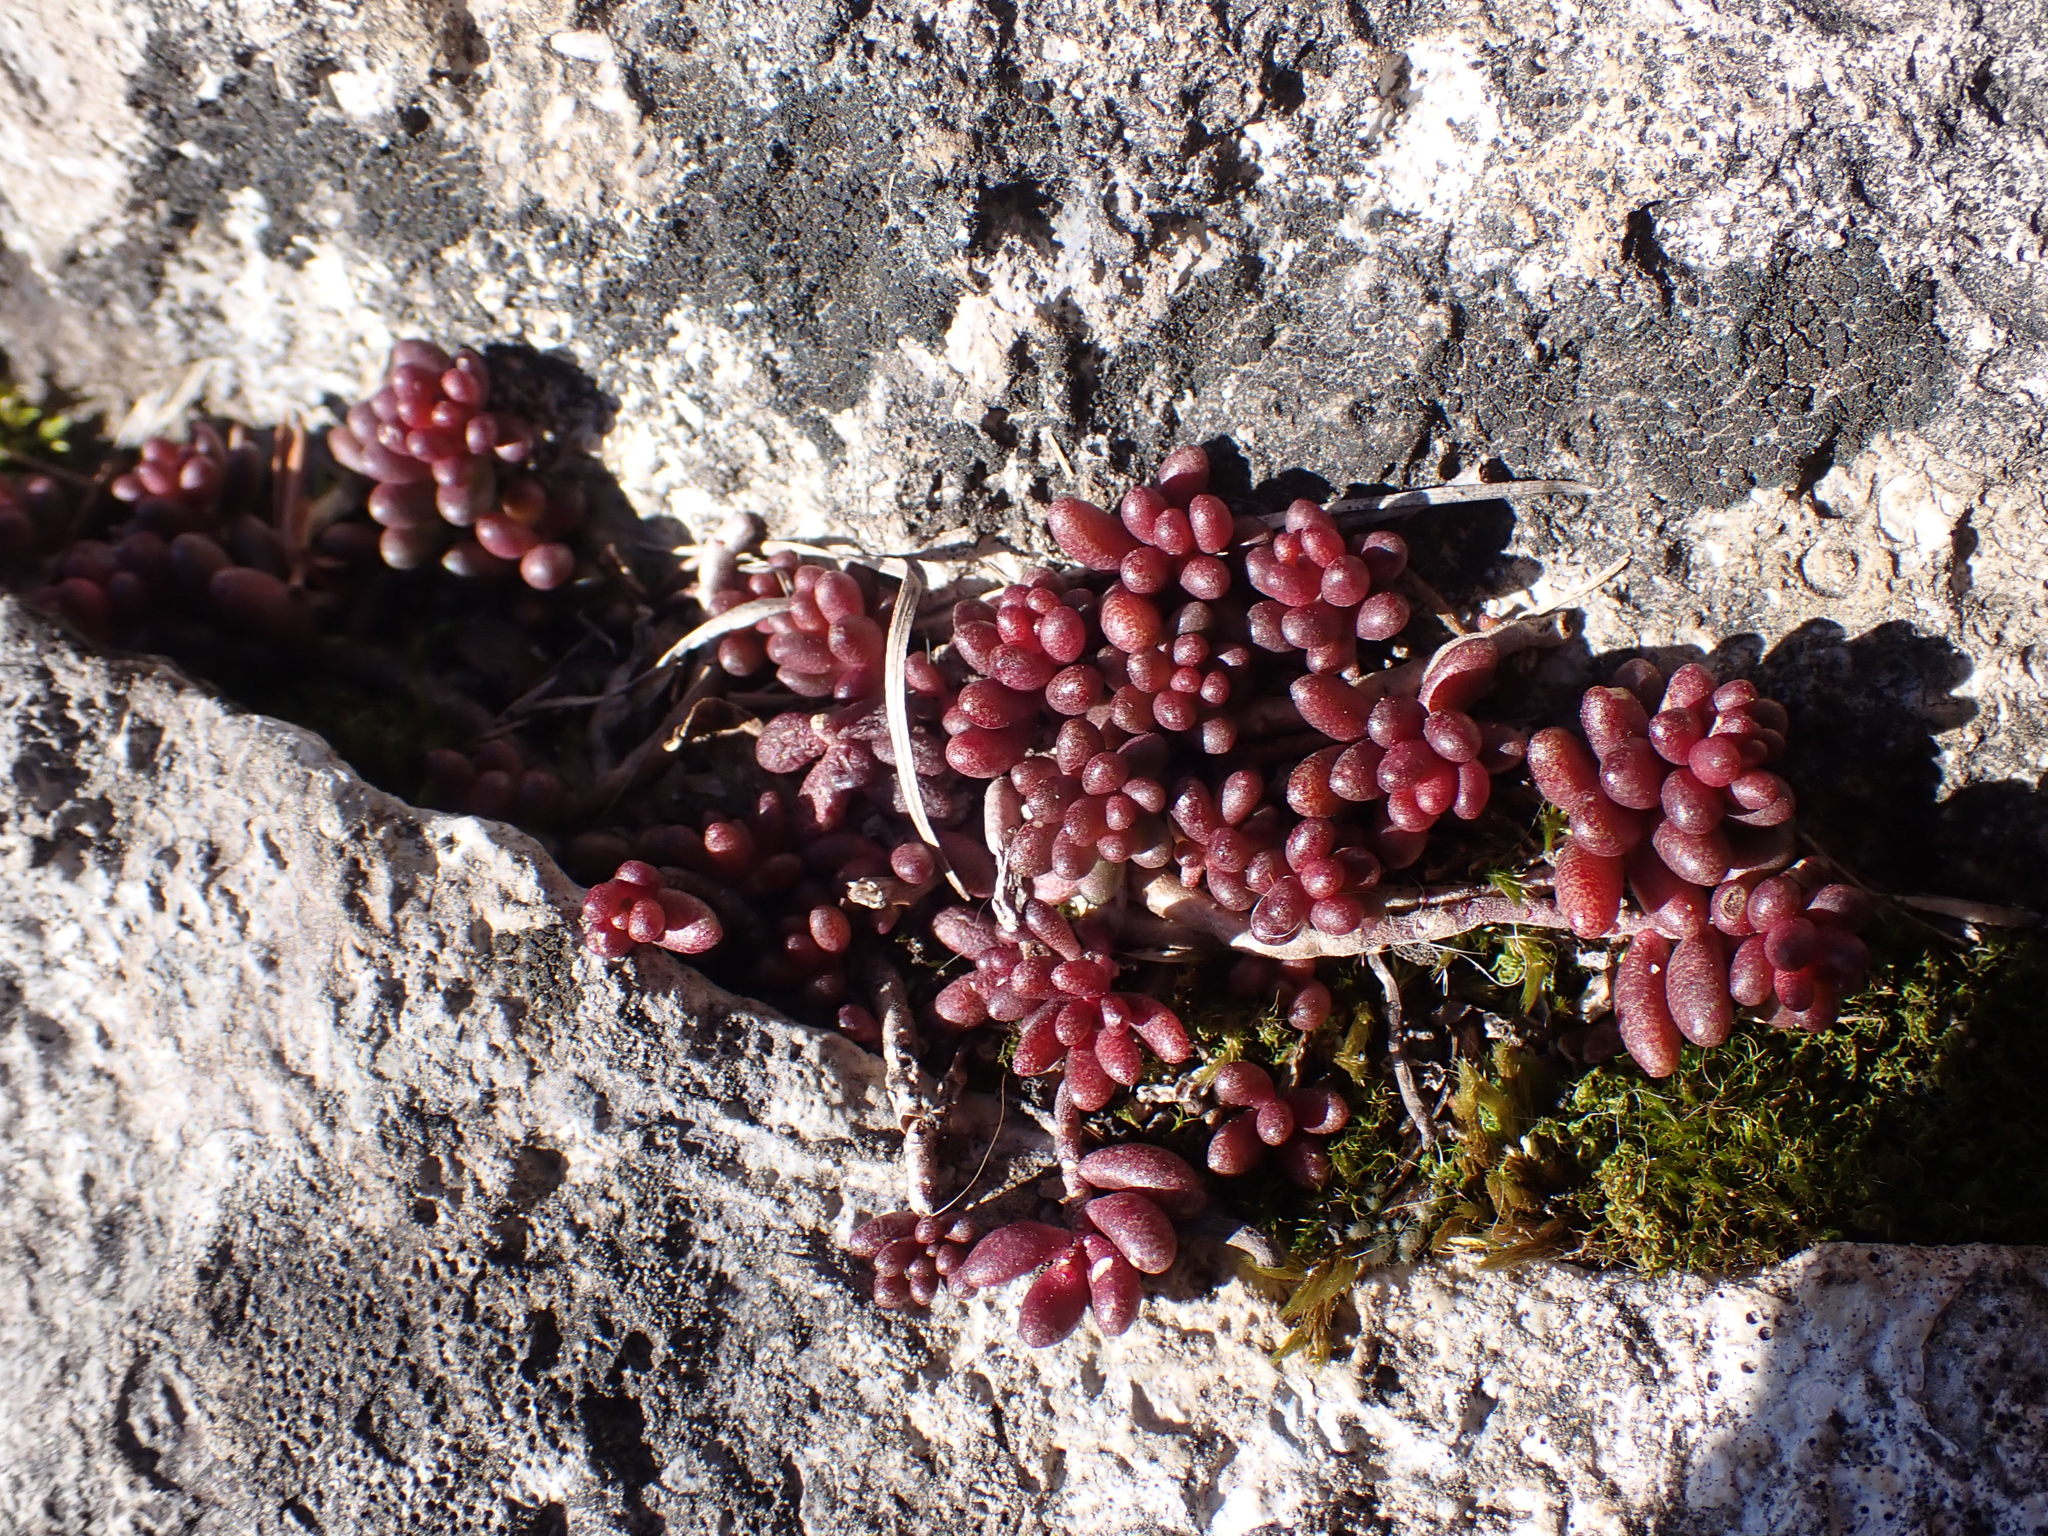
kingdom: Plantae
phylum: Tracheophyta
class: Magnoliopsida
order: Saxifragales
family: Crassulaceae
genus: Sedum
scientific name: Sedum album
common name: White stonecrop
